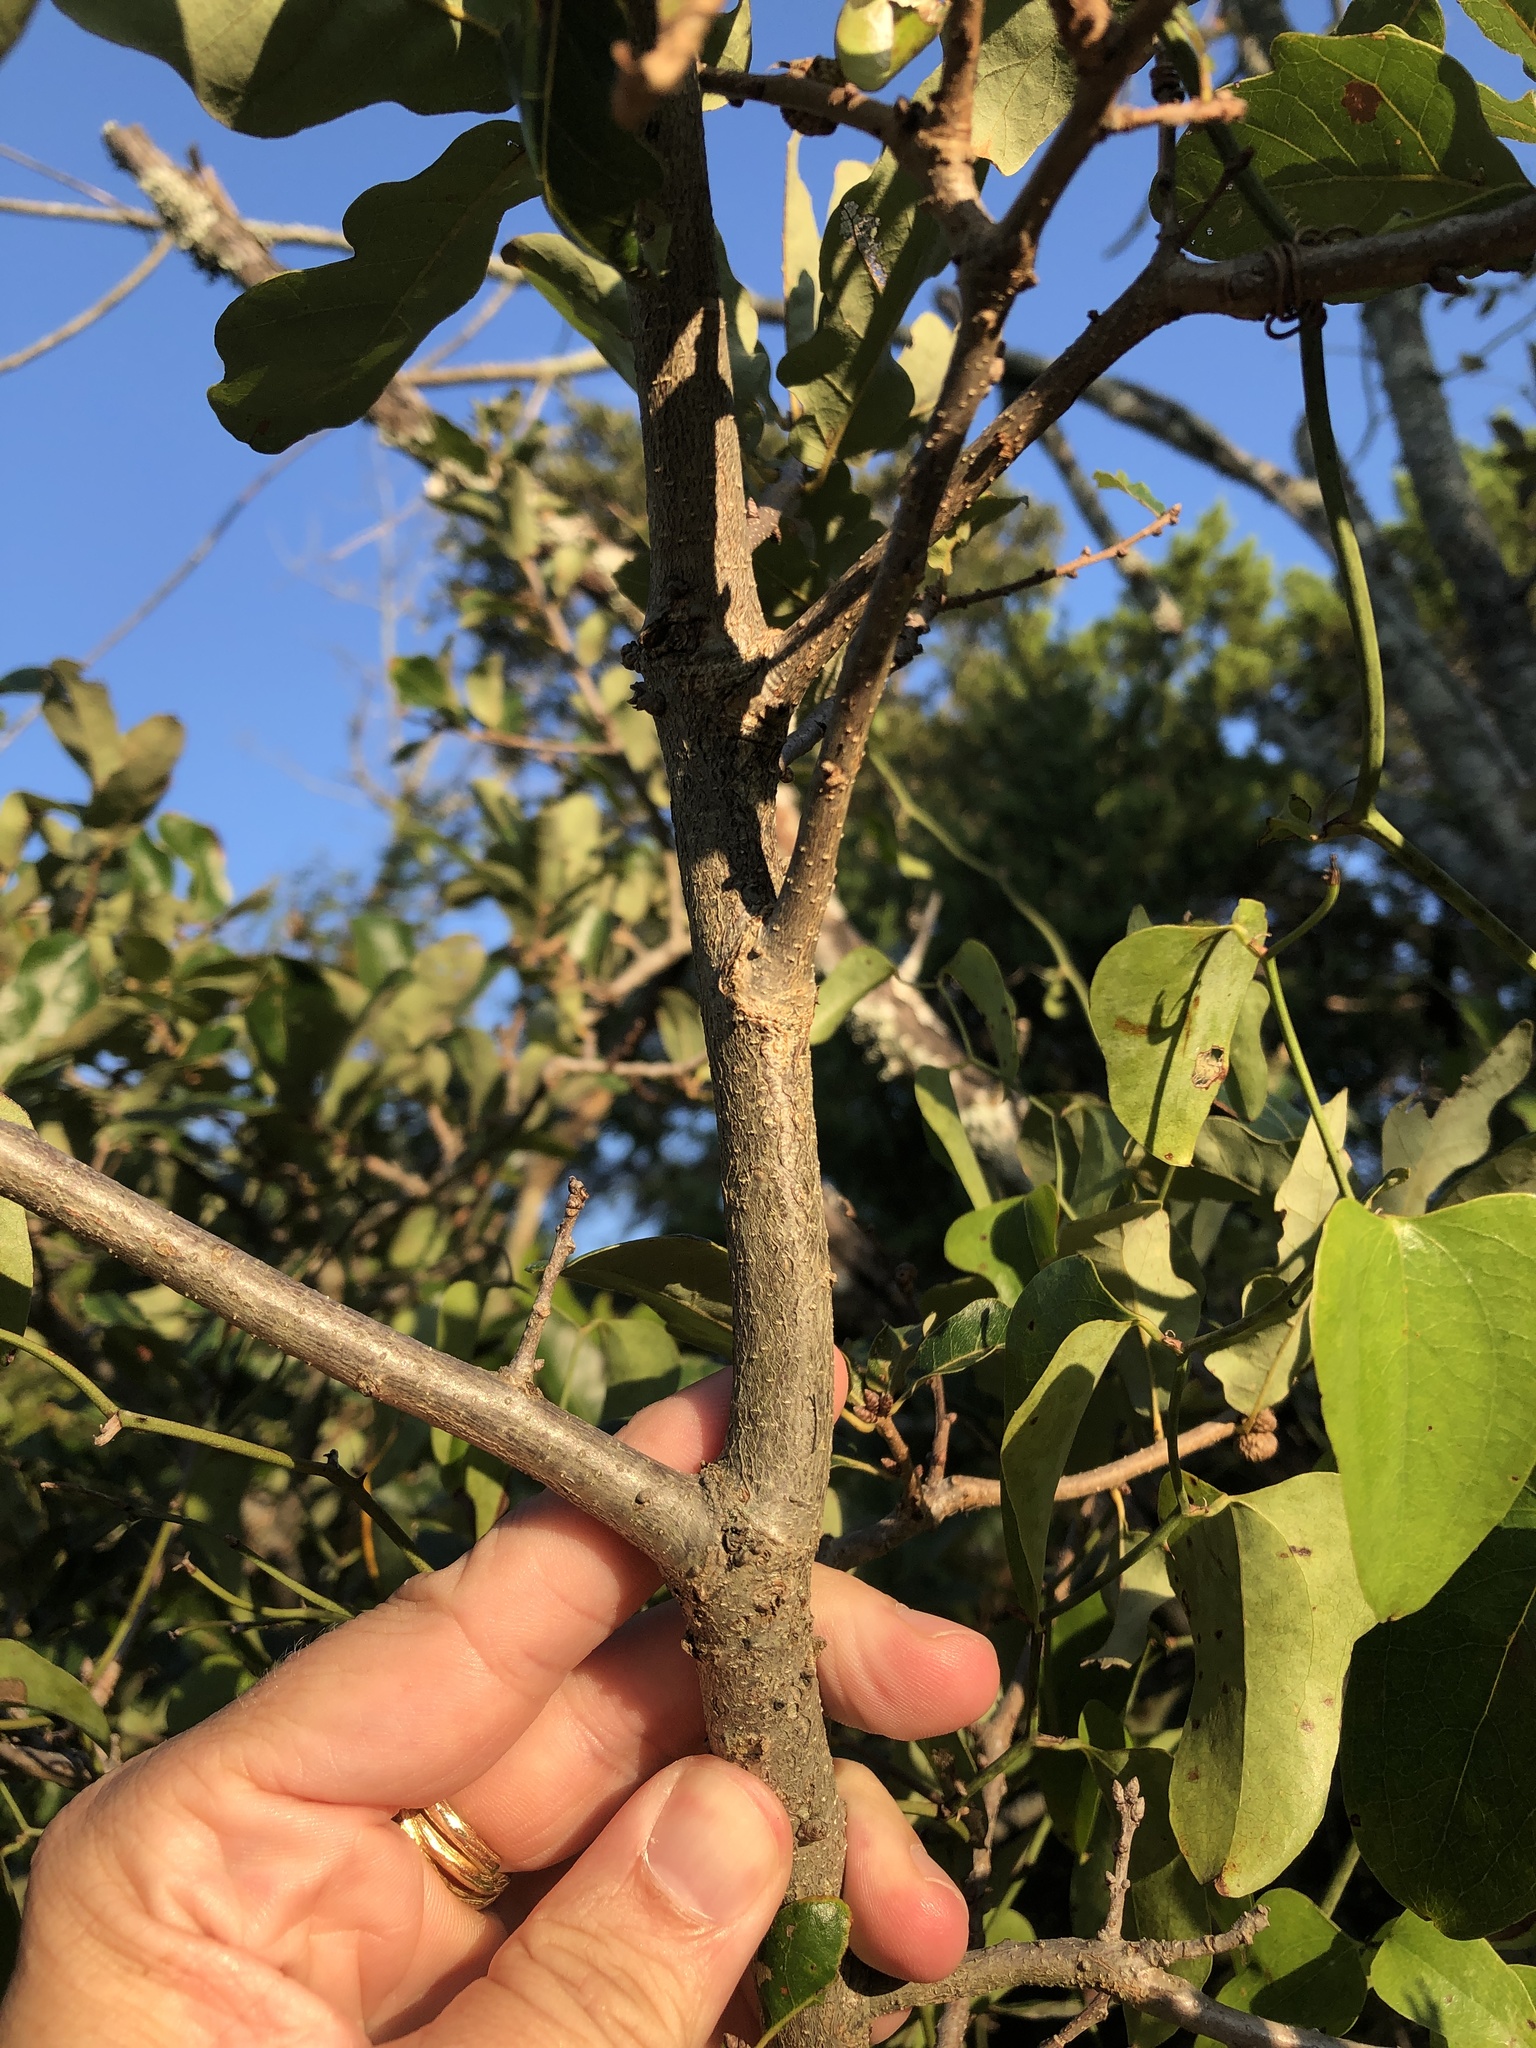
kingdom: Plantae
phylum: Tracheophyta
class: Magnoliopsida
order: Fagales
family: Fagaceae
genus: Quercus
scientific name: Quercus sinuata
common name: Durand oak
